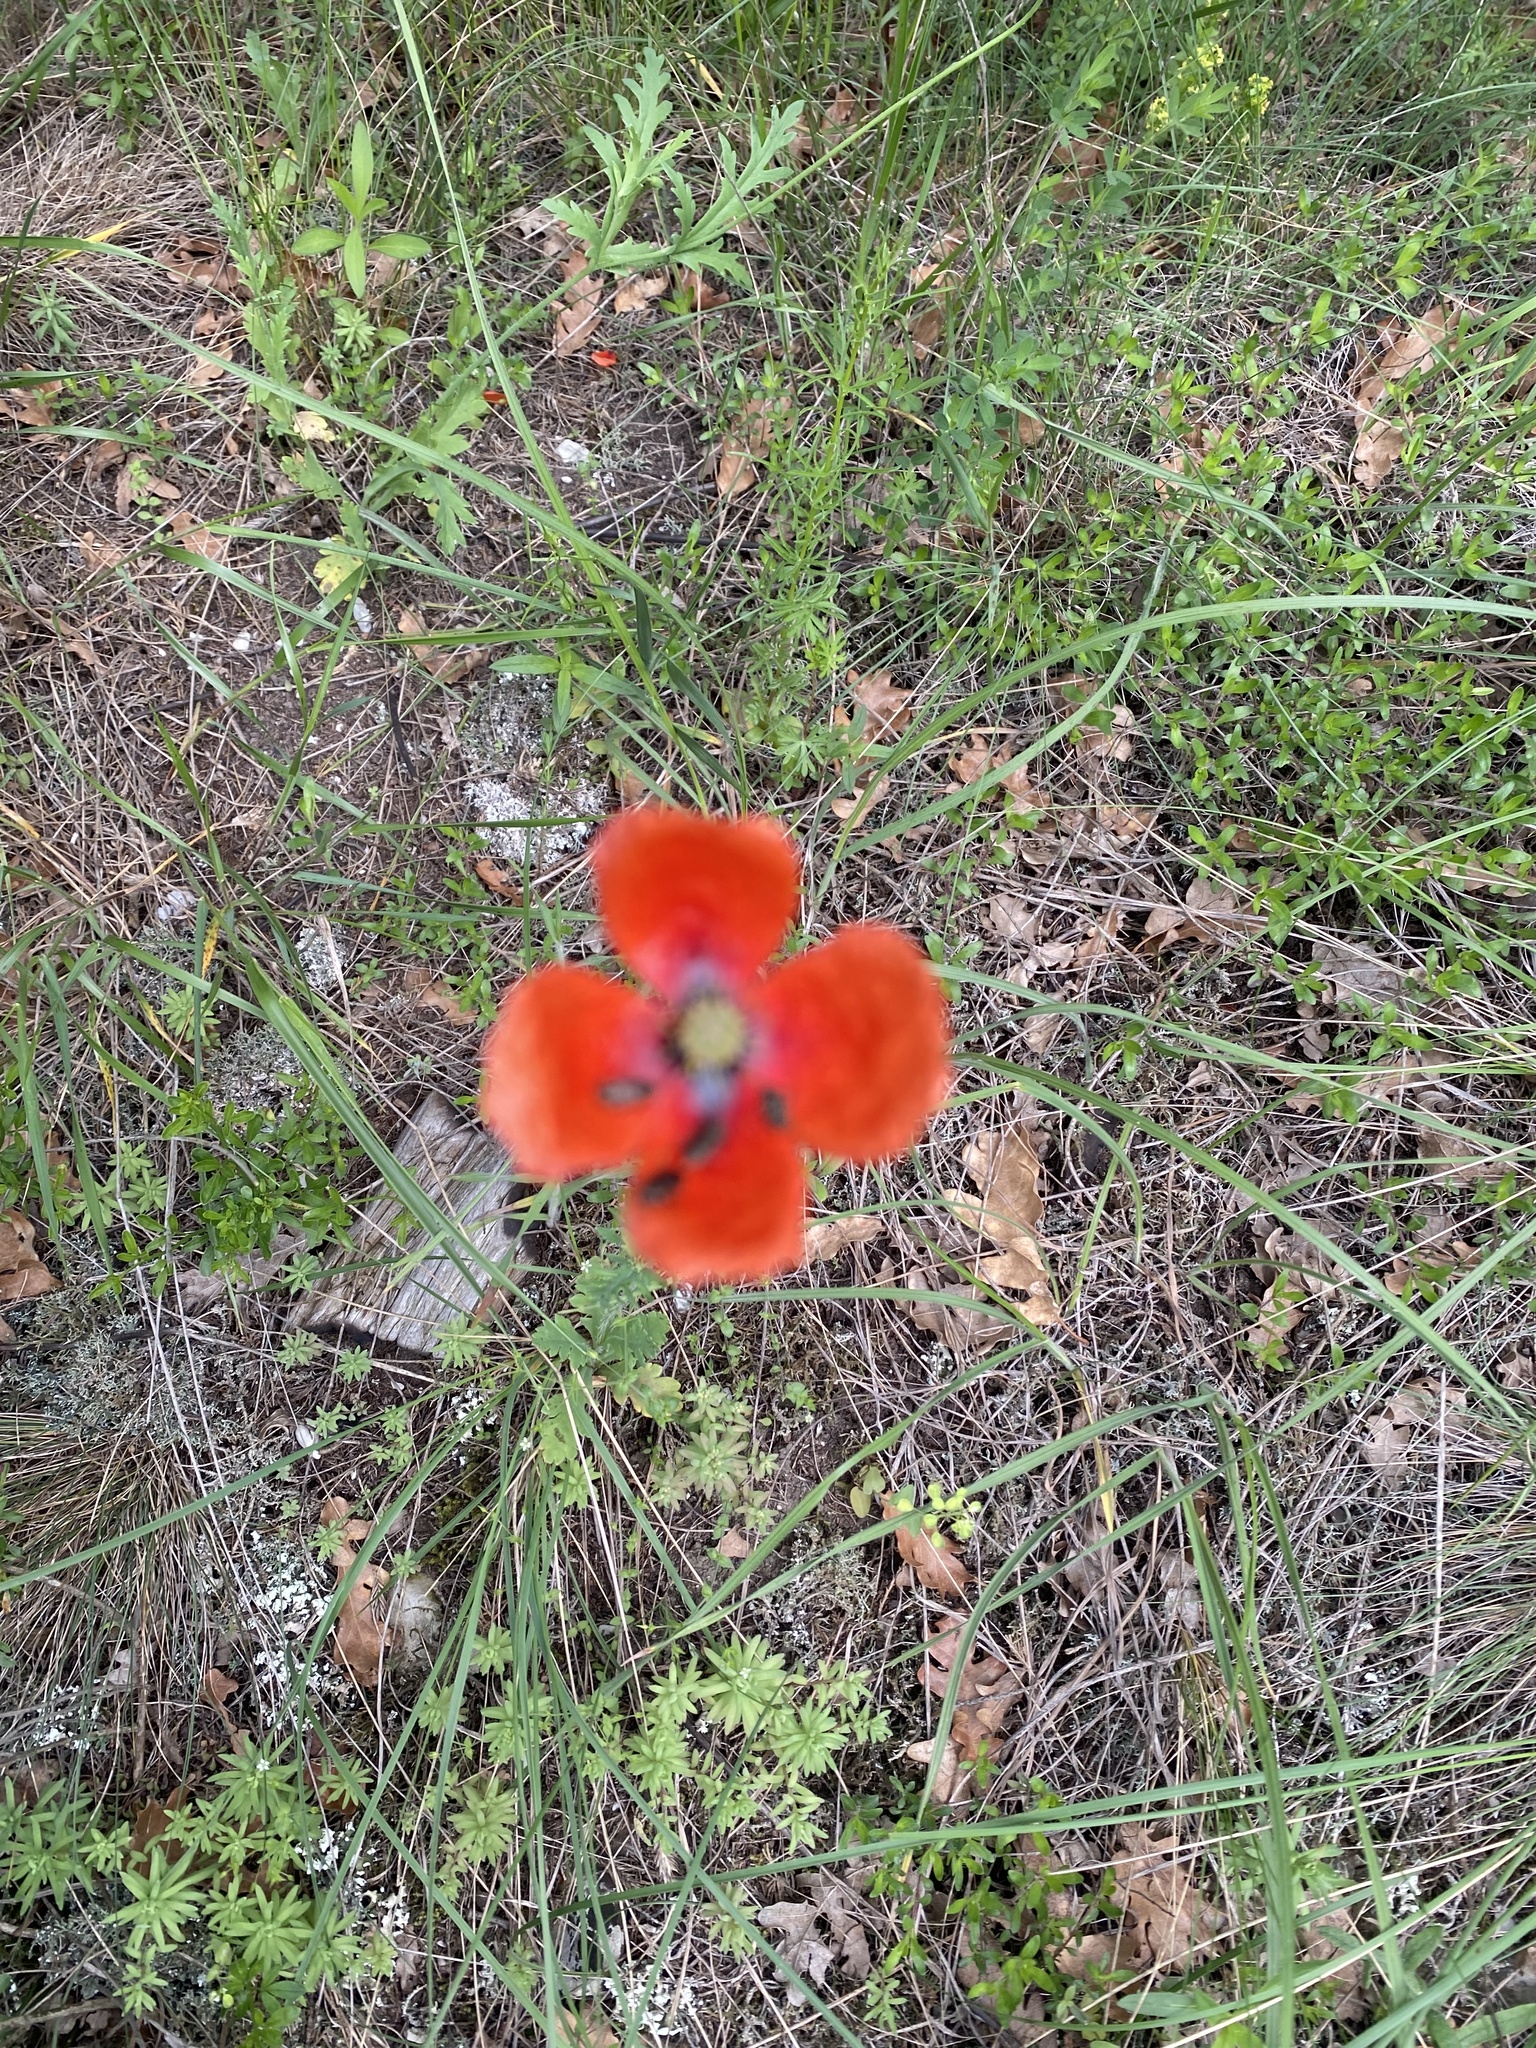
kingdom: Plantae
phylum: Tracheophyta
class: Magnoliopsida
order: Ranunculales
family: Papaveraceae
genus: Papaver
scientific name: Papaver dubium
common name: Long-headed poppy
